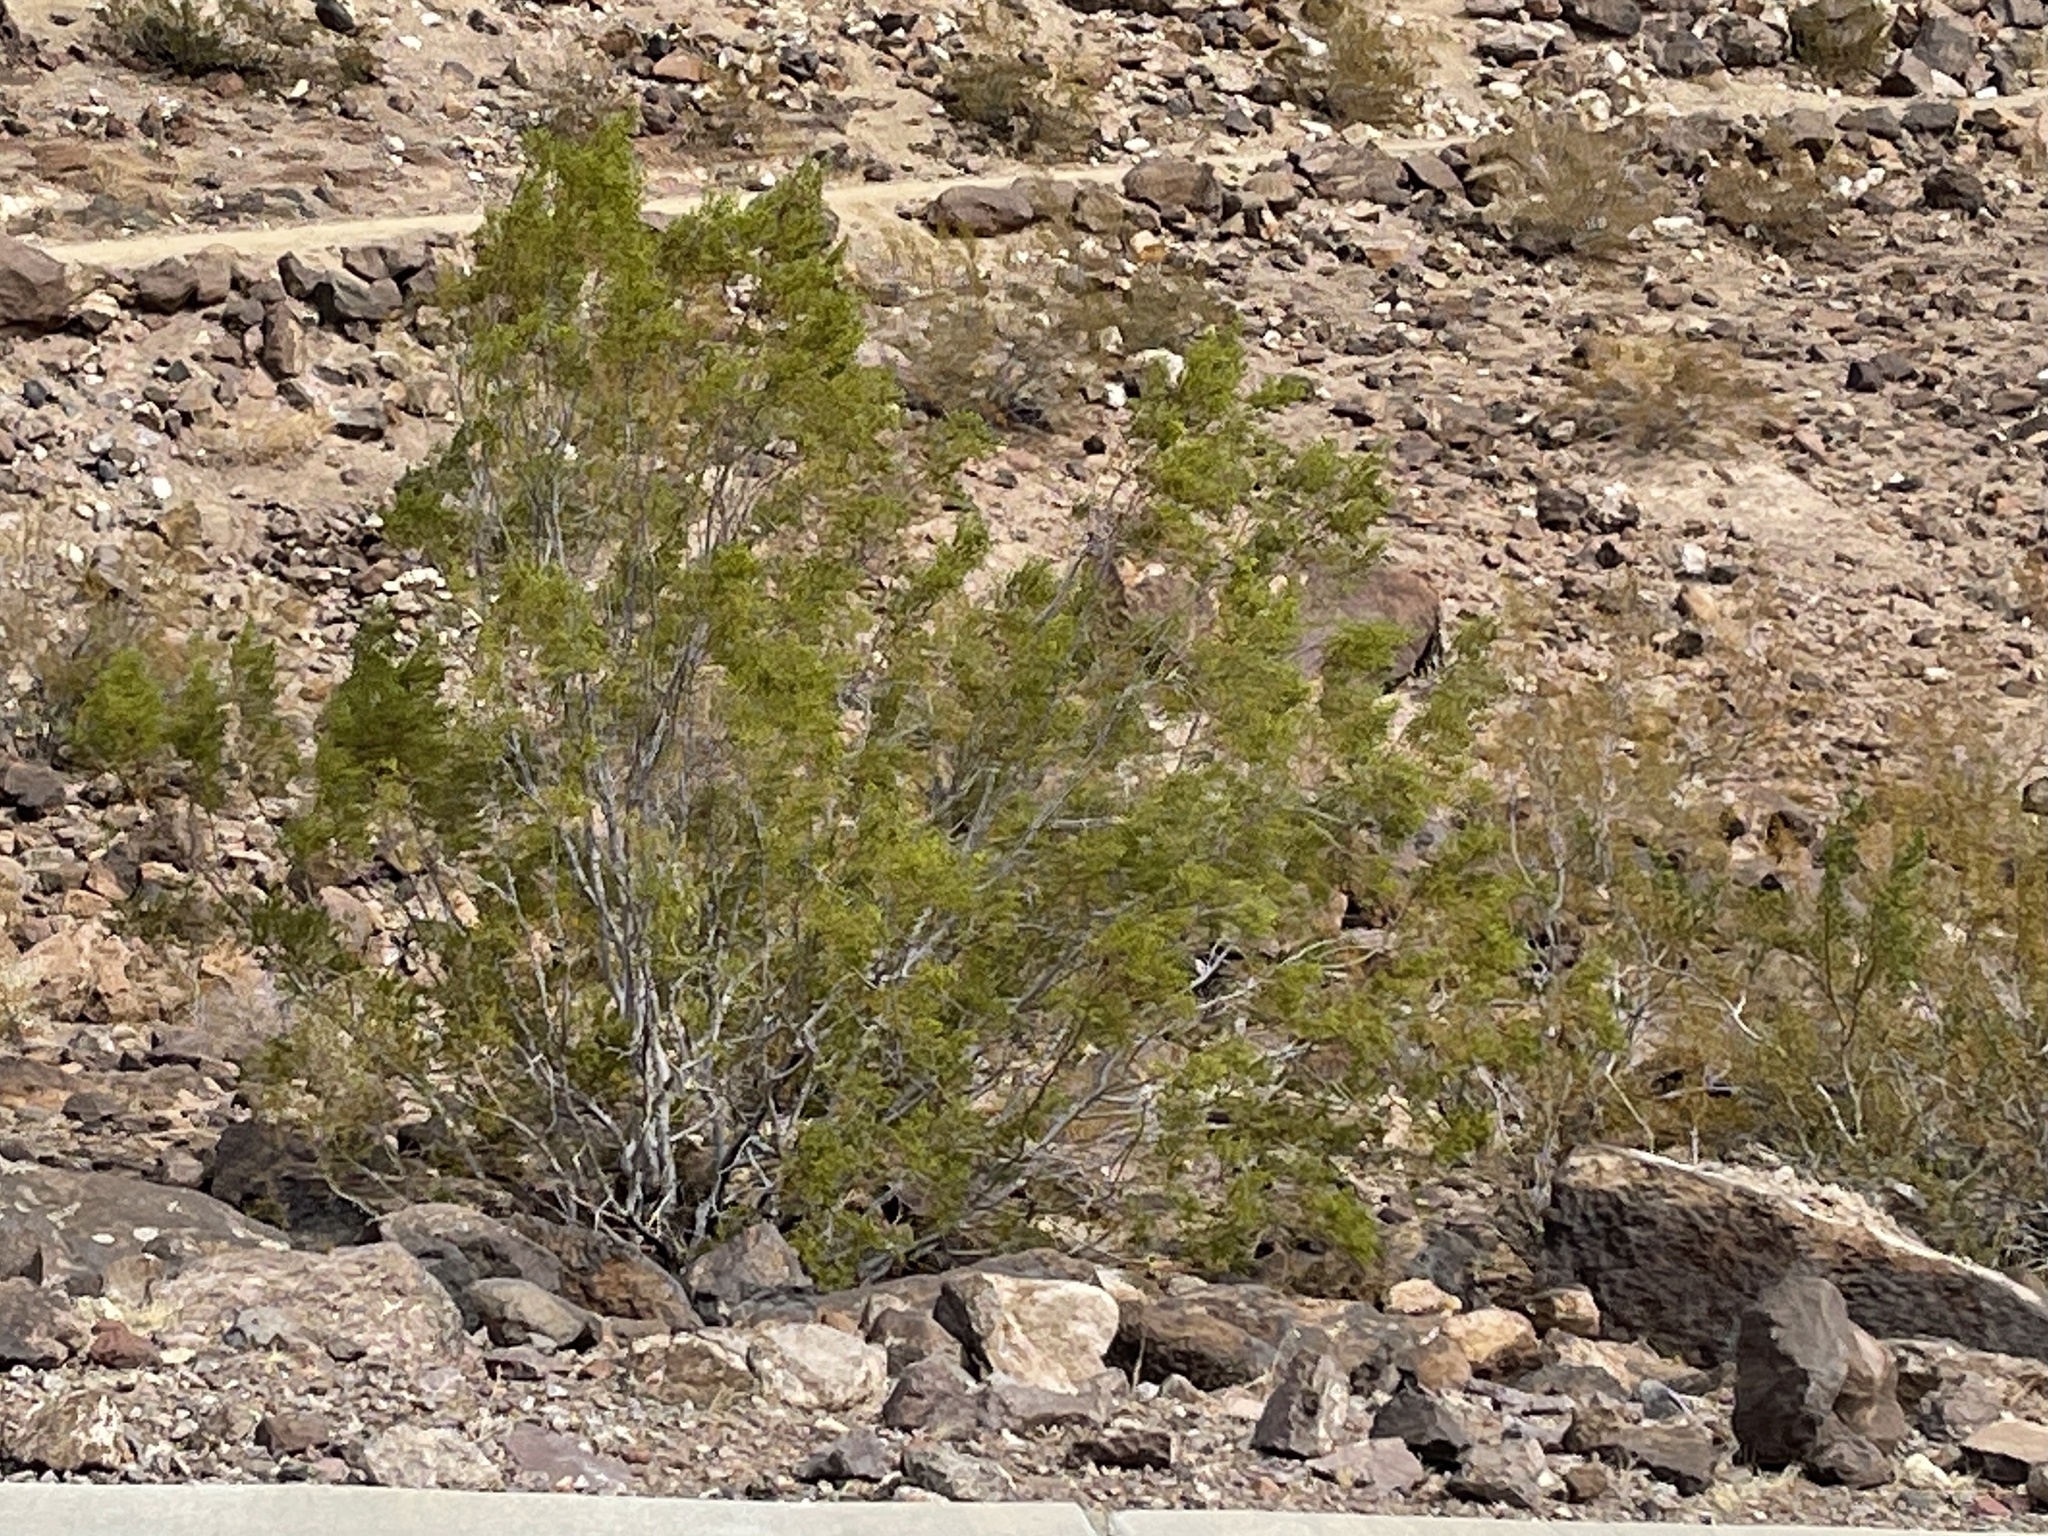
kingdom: Plantae
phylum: Tracheophyta
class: Magnoliopsida
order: Zygophyllales
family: Zygophyllaceae
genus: Larrea
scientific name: Larrea tridentata
